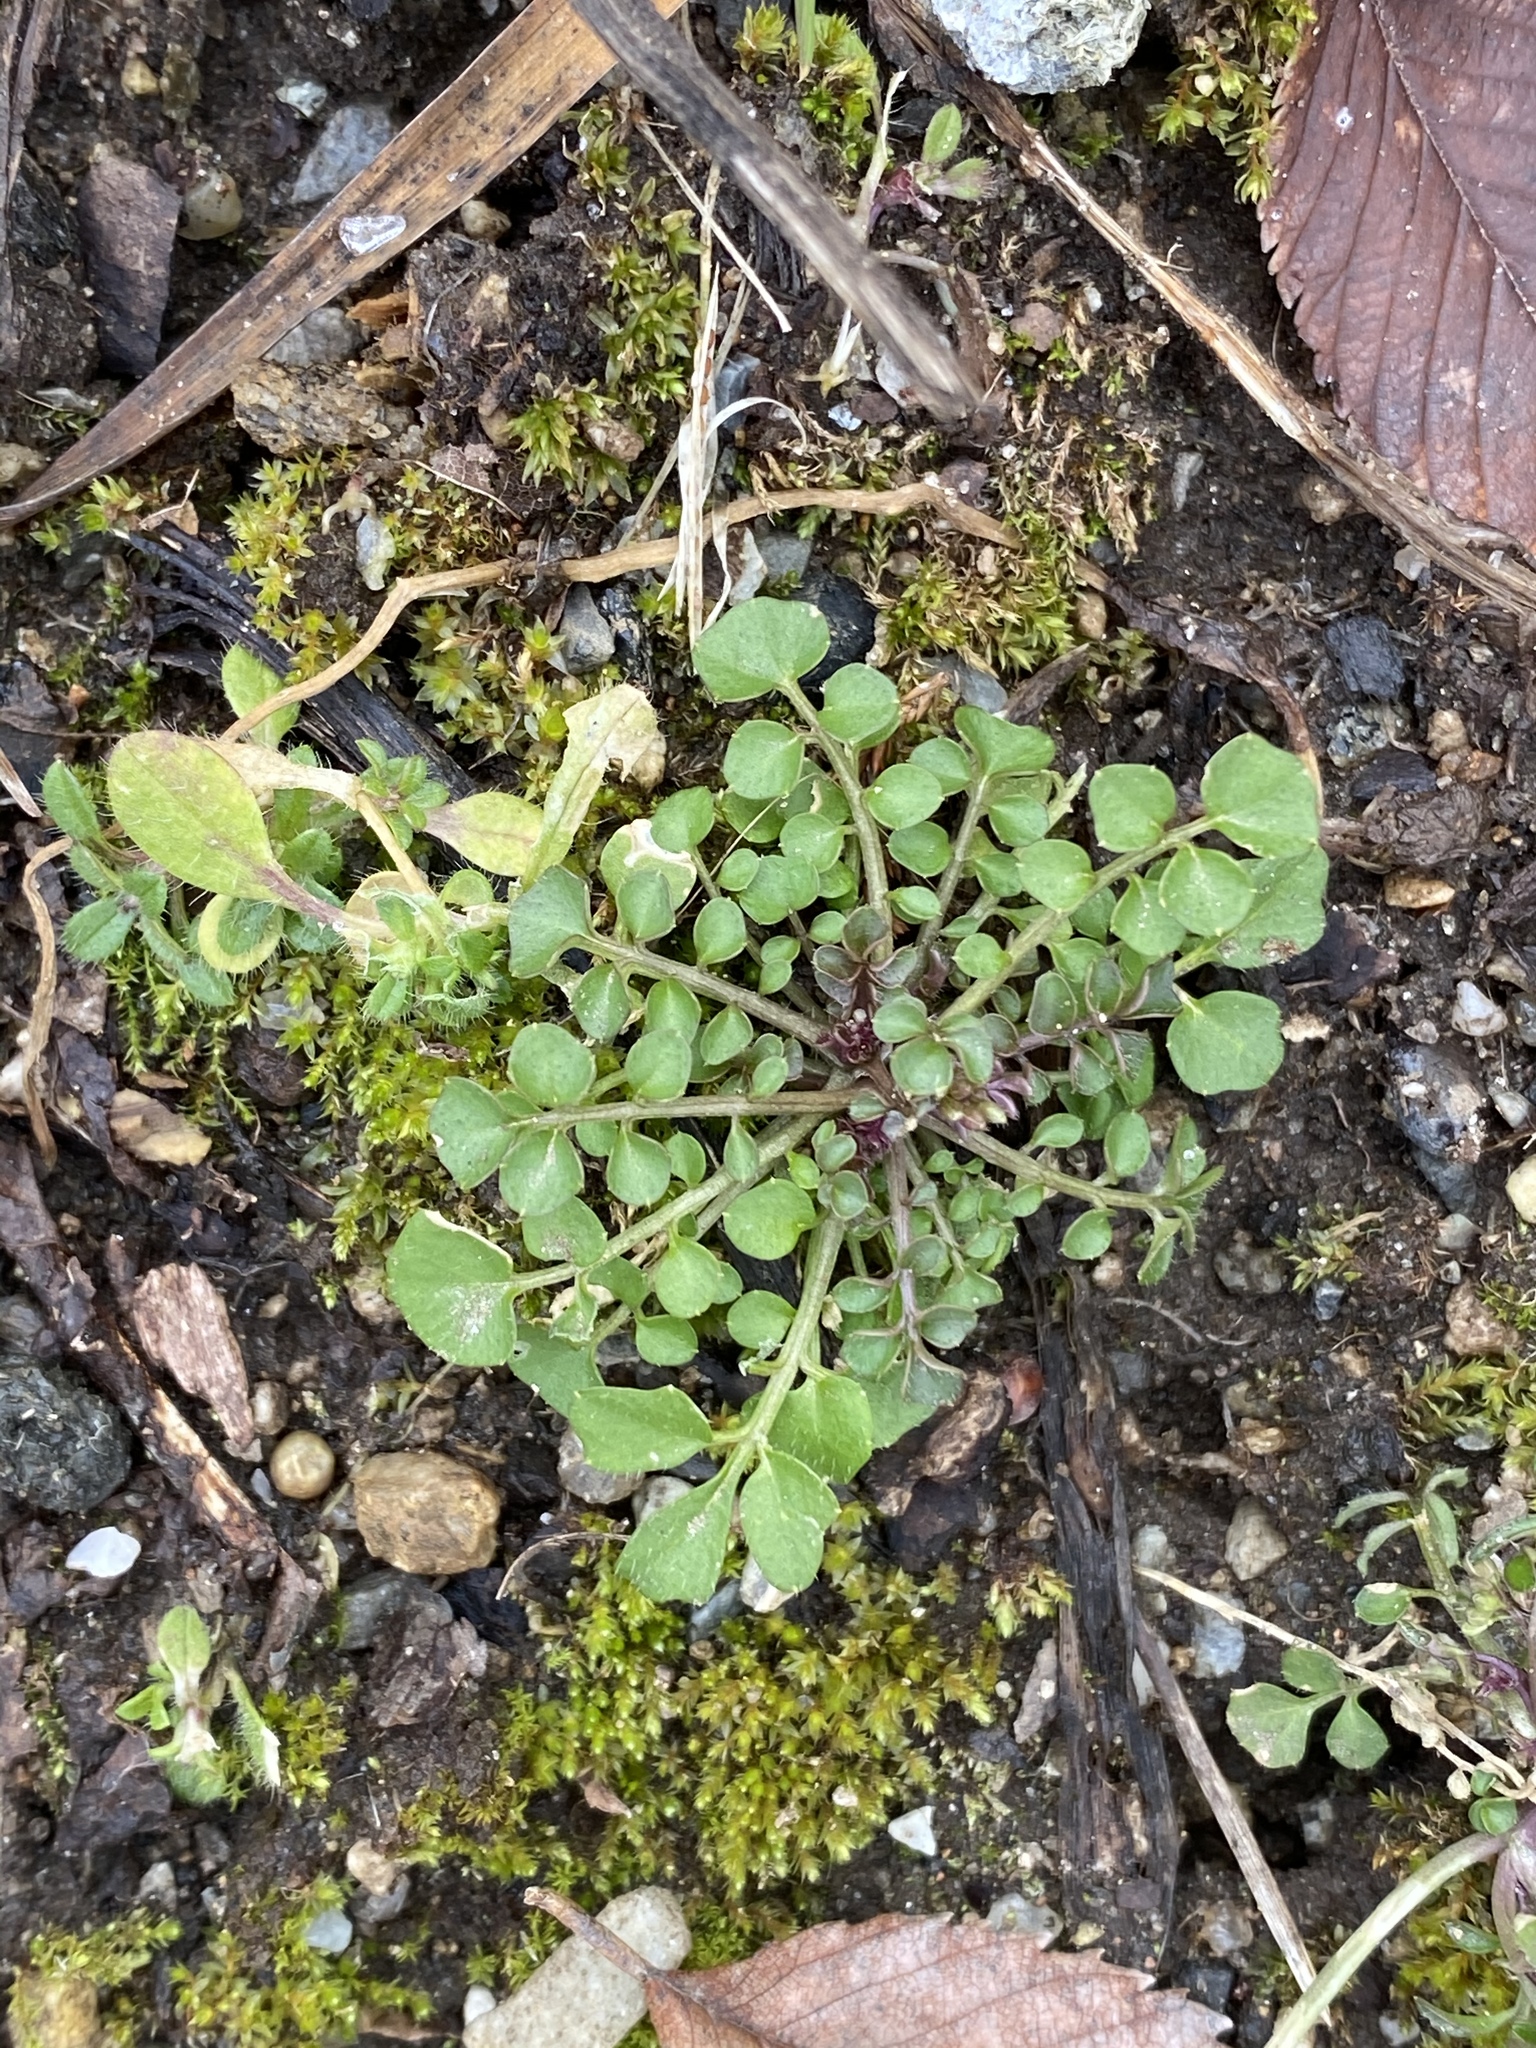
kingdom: Plantae
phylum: Tracheophyta
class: Magnoliopsida
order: Brassicales
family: Brassicaceae
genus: Cardamine
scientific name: Cardamine hirsuta
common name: Hairy bittercress
